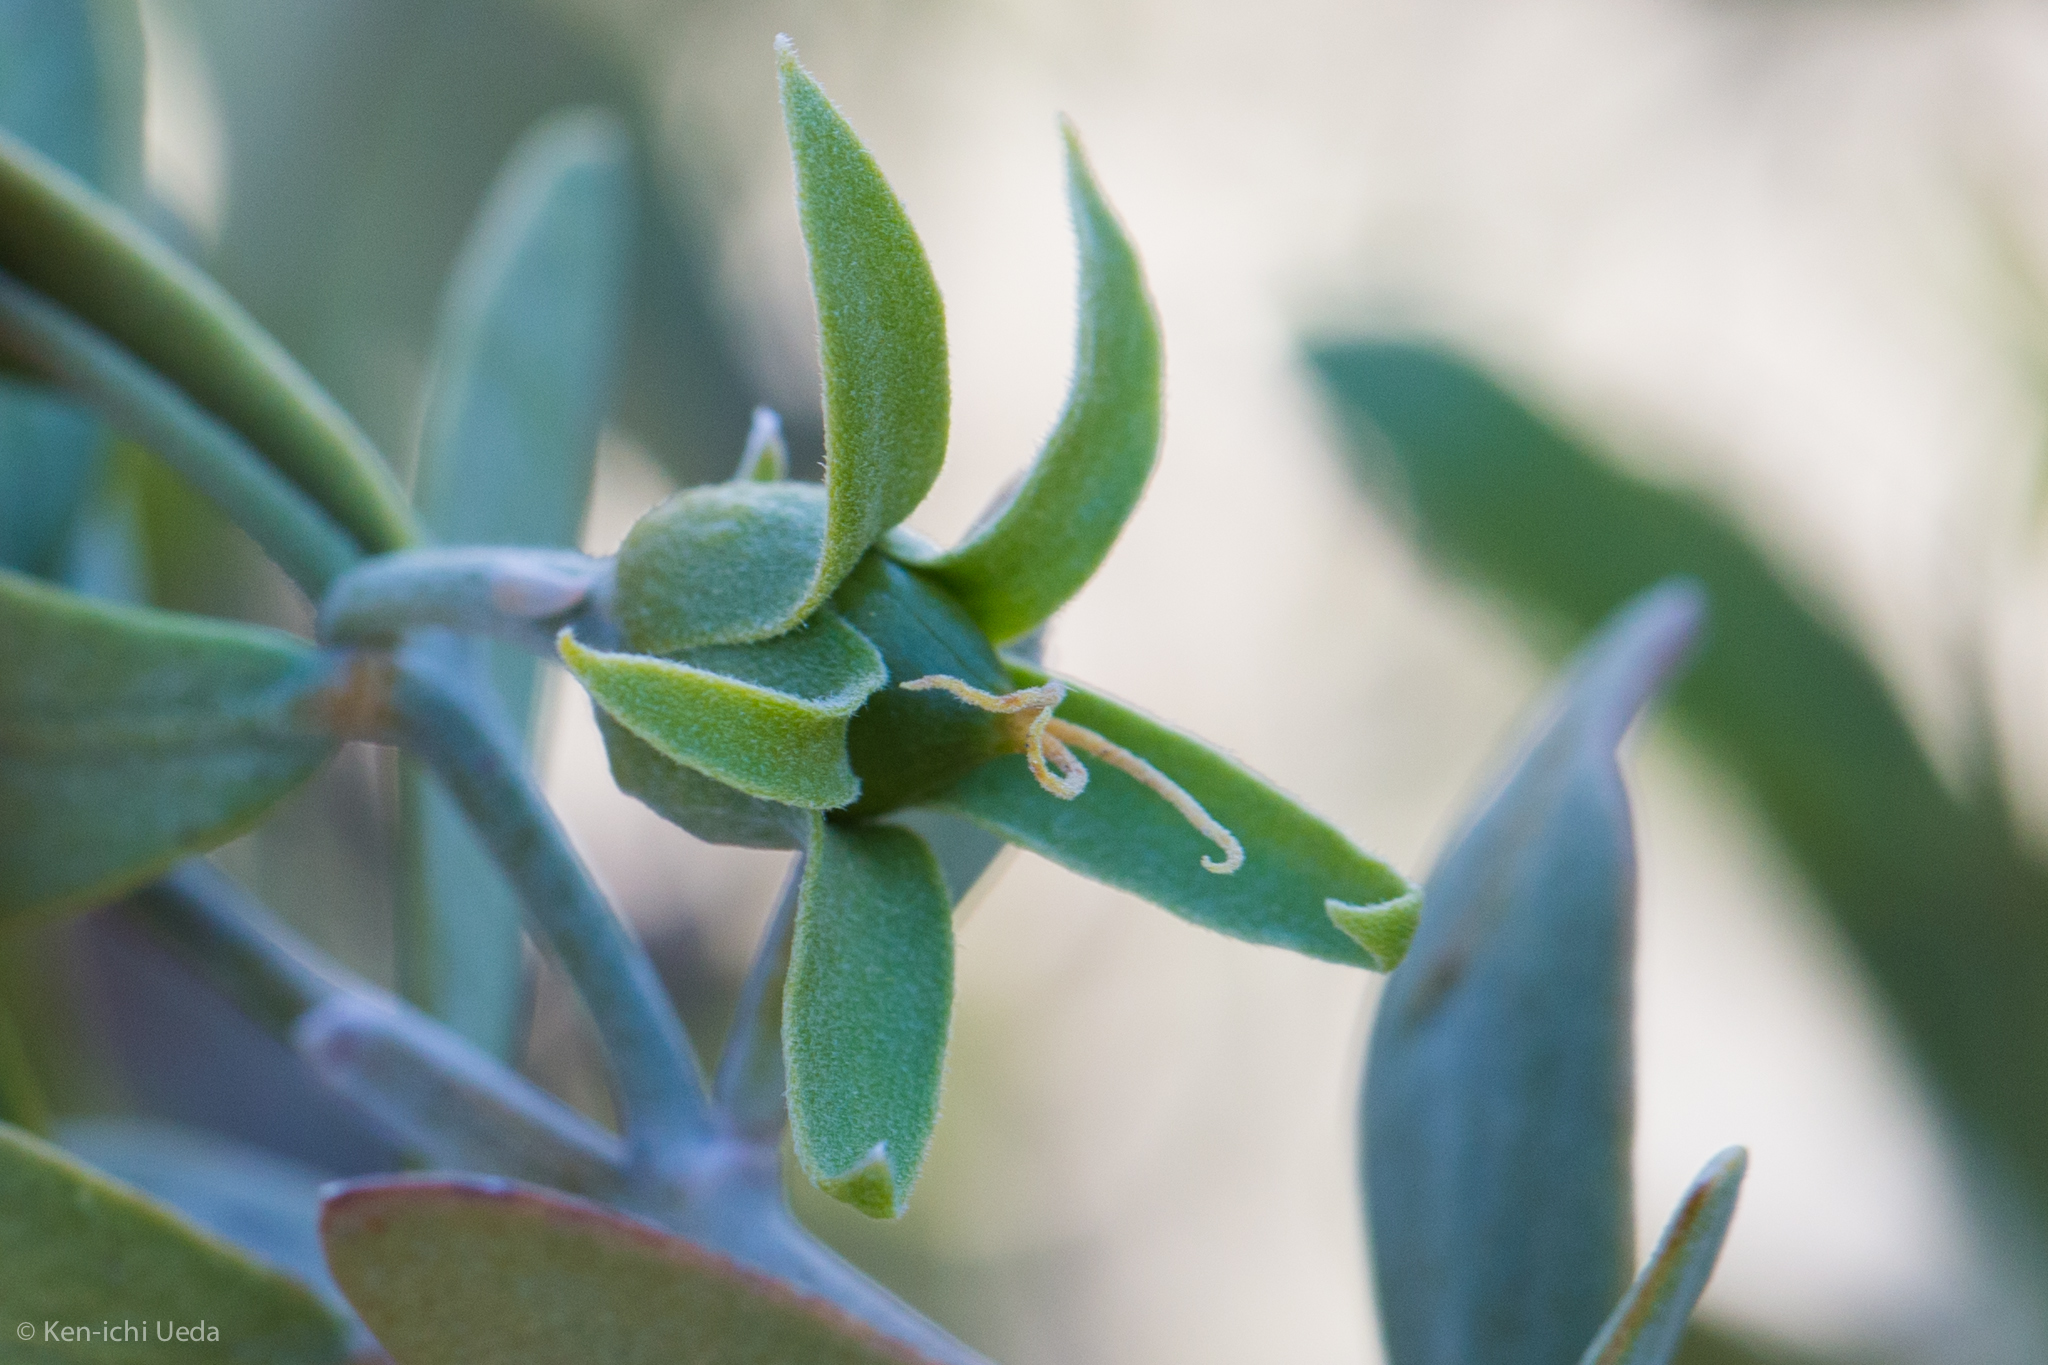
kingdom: Plantae
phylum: Tracheophyta
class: Magnoliopsida
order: Caryophyllales
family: Simmondsiaceae
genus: Simmondsia
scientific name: Simmondsia chinensis
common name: Jojoba
